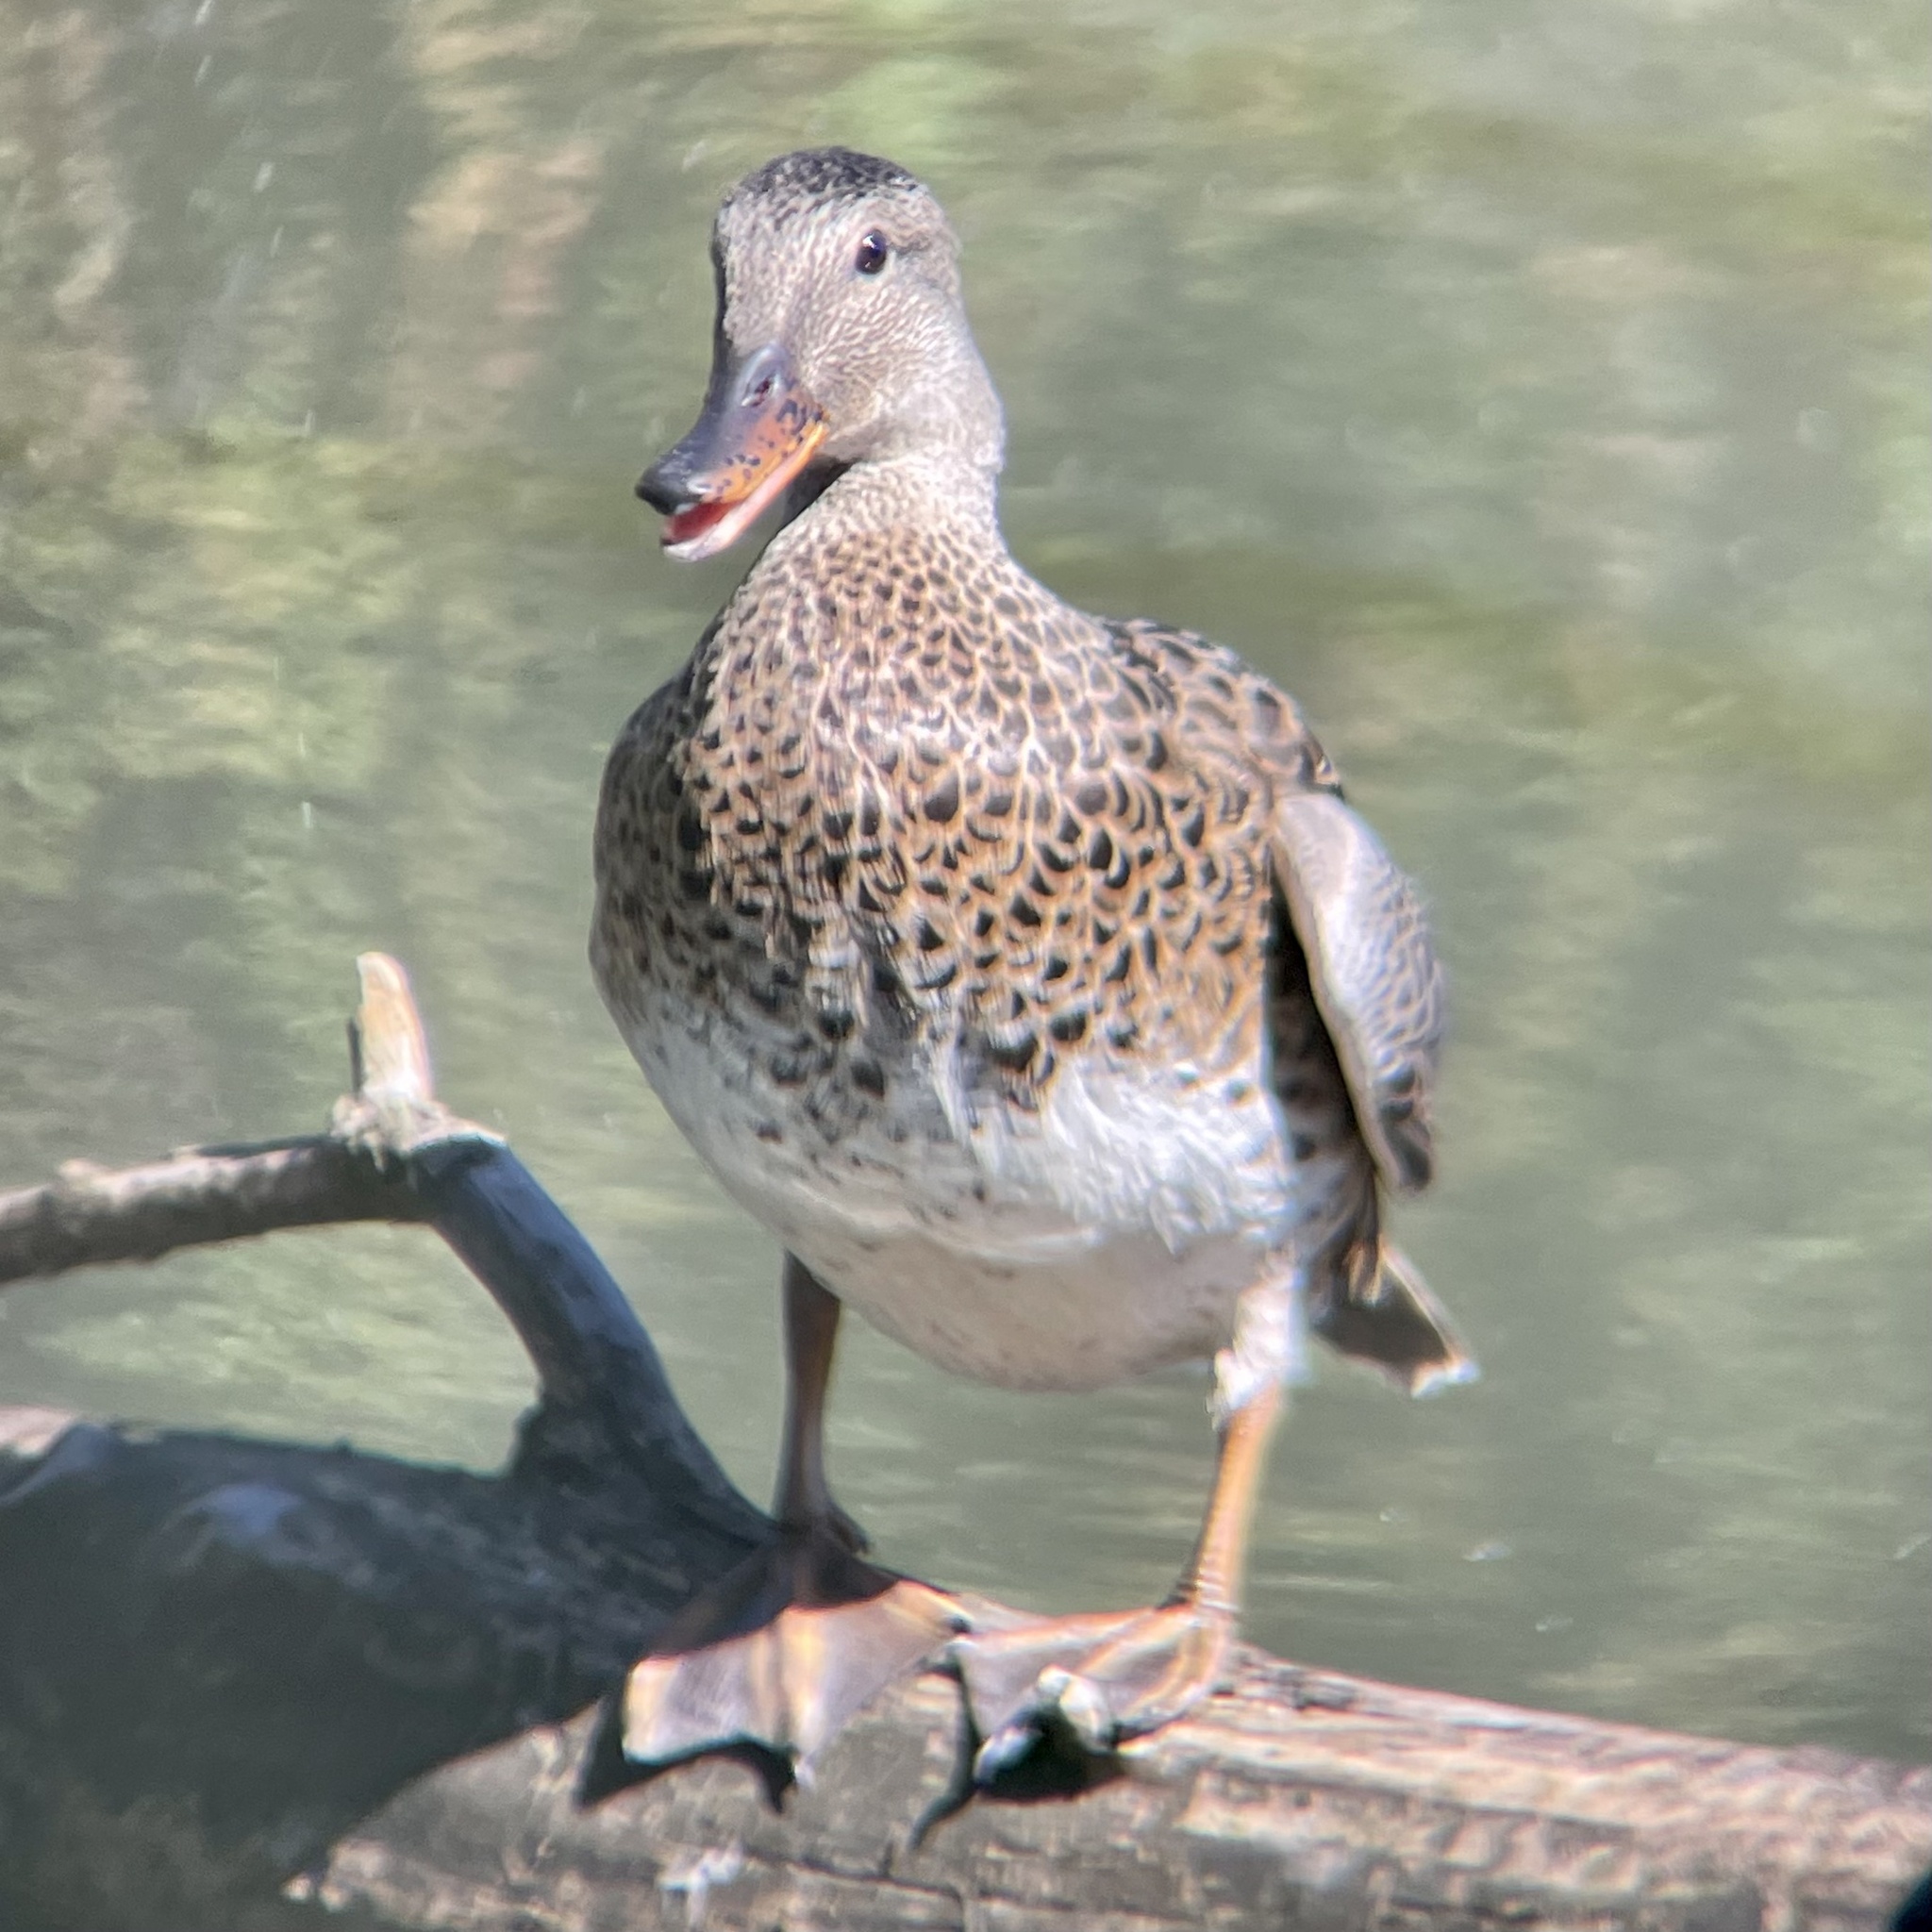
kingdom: Animalia
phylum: Chordata
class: Aves
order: Anseriformes
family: Anatidae
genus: Mareca
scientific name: Mareca strepera
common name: Gadwall
